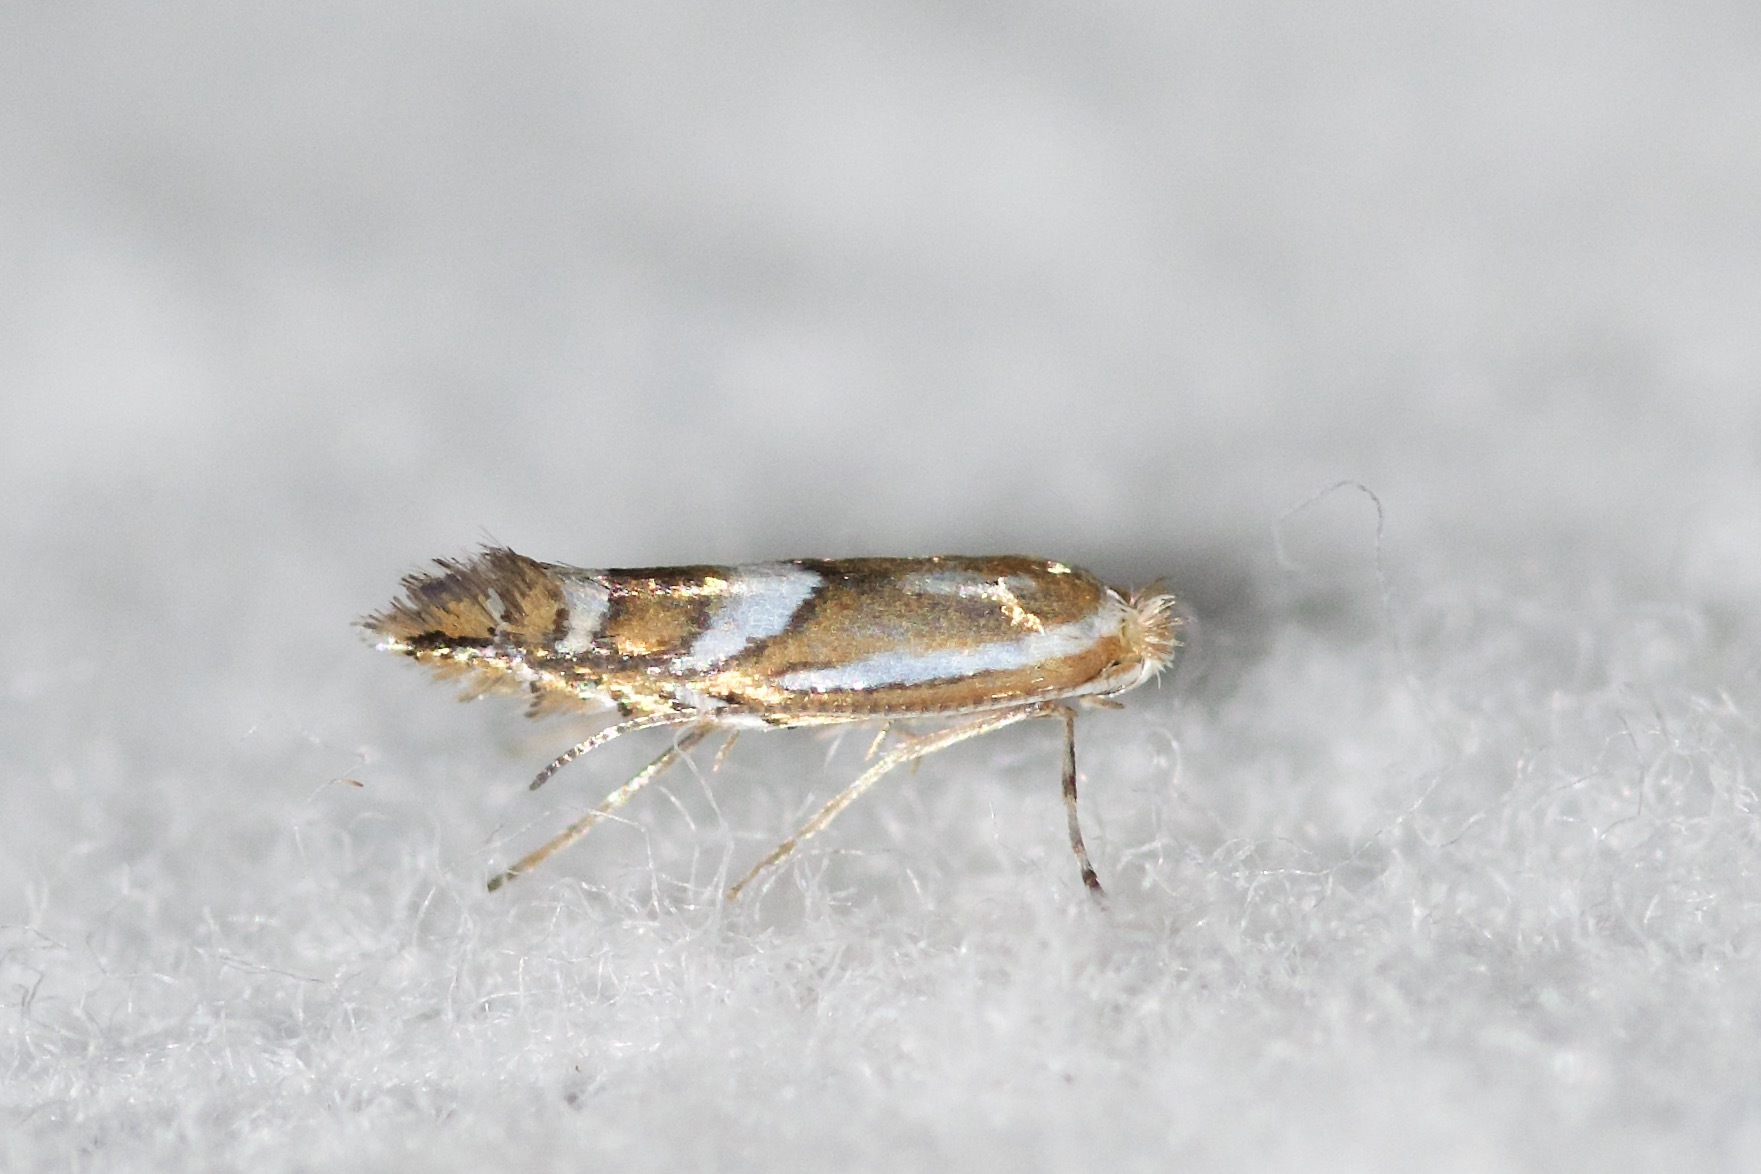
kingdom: Animalia
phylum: Arthropoda
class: Insecta
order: Lepidoptera
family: Gracillariidae
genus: Phyllonorycter
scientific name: Phyllonorycter propinquinella
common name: Cherry blotchminer
